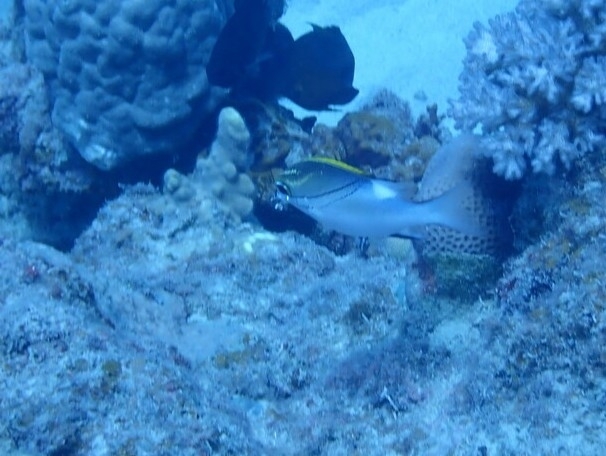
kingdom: Animalia
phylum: Chordata
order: Perciformes
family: Nemipteridae
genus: Scolopsis
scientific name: Scolopsis bilineata
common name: Two-lined monocle bream
